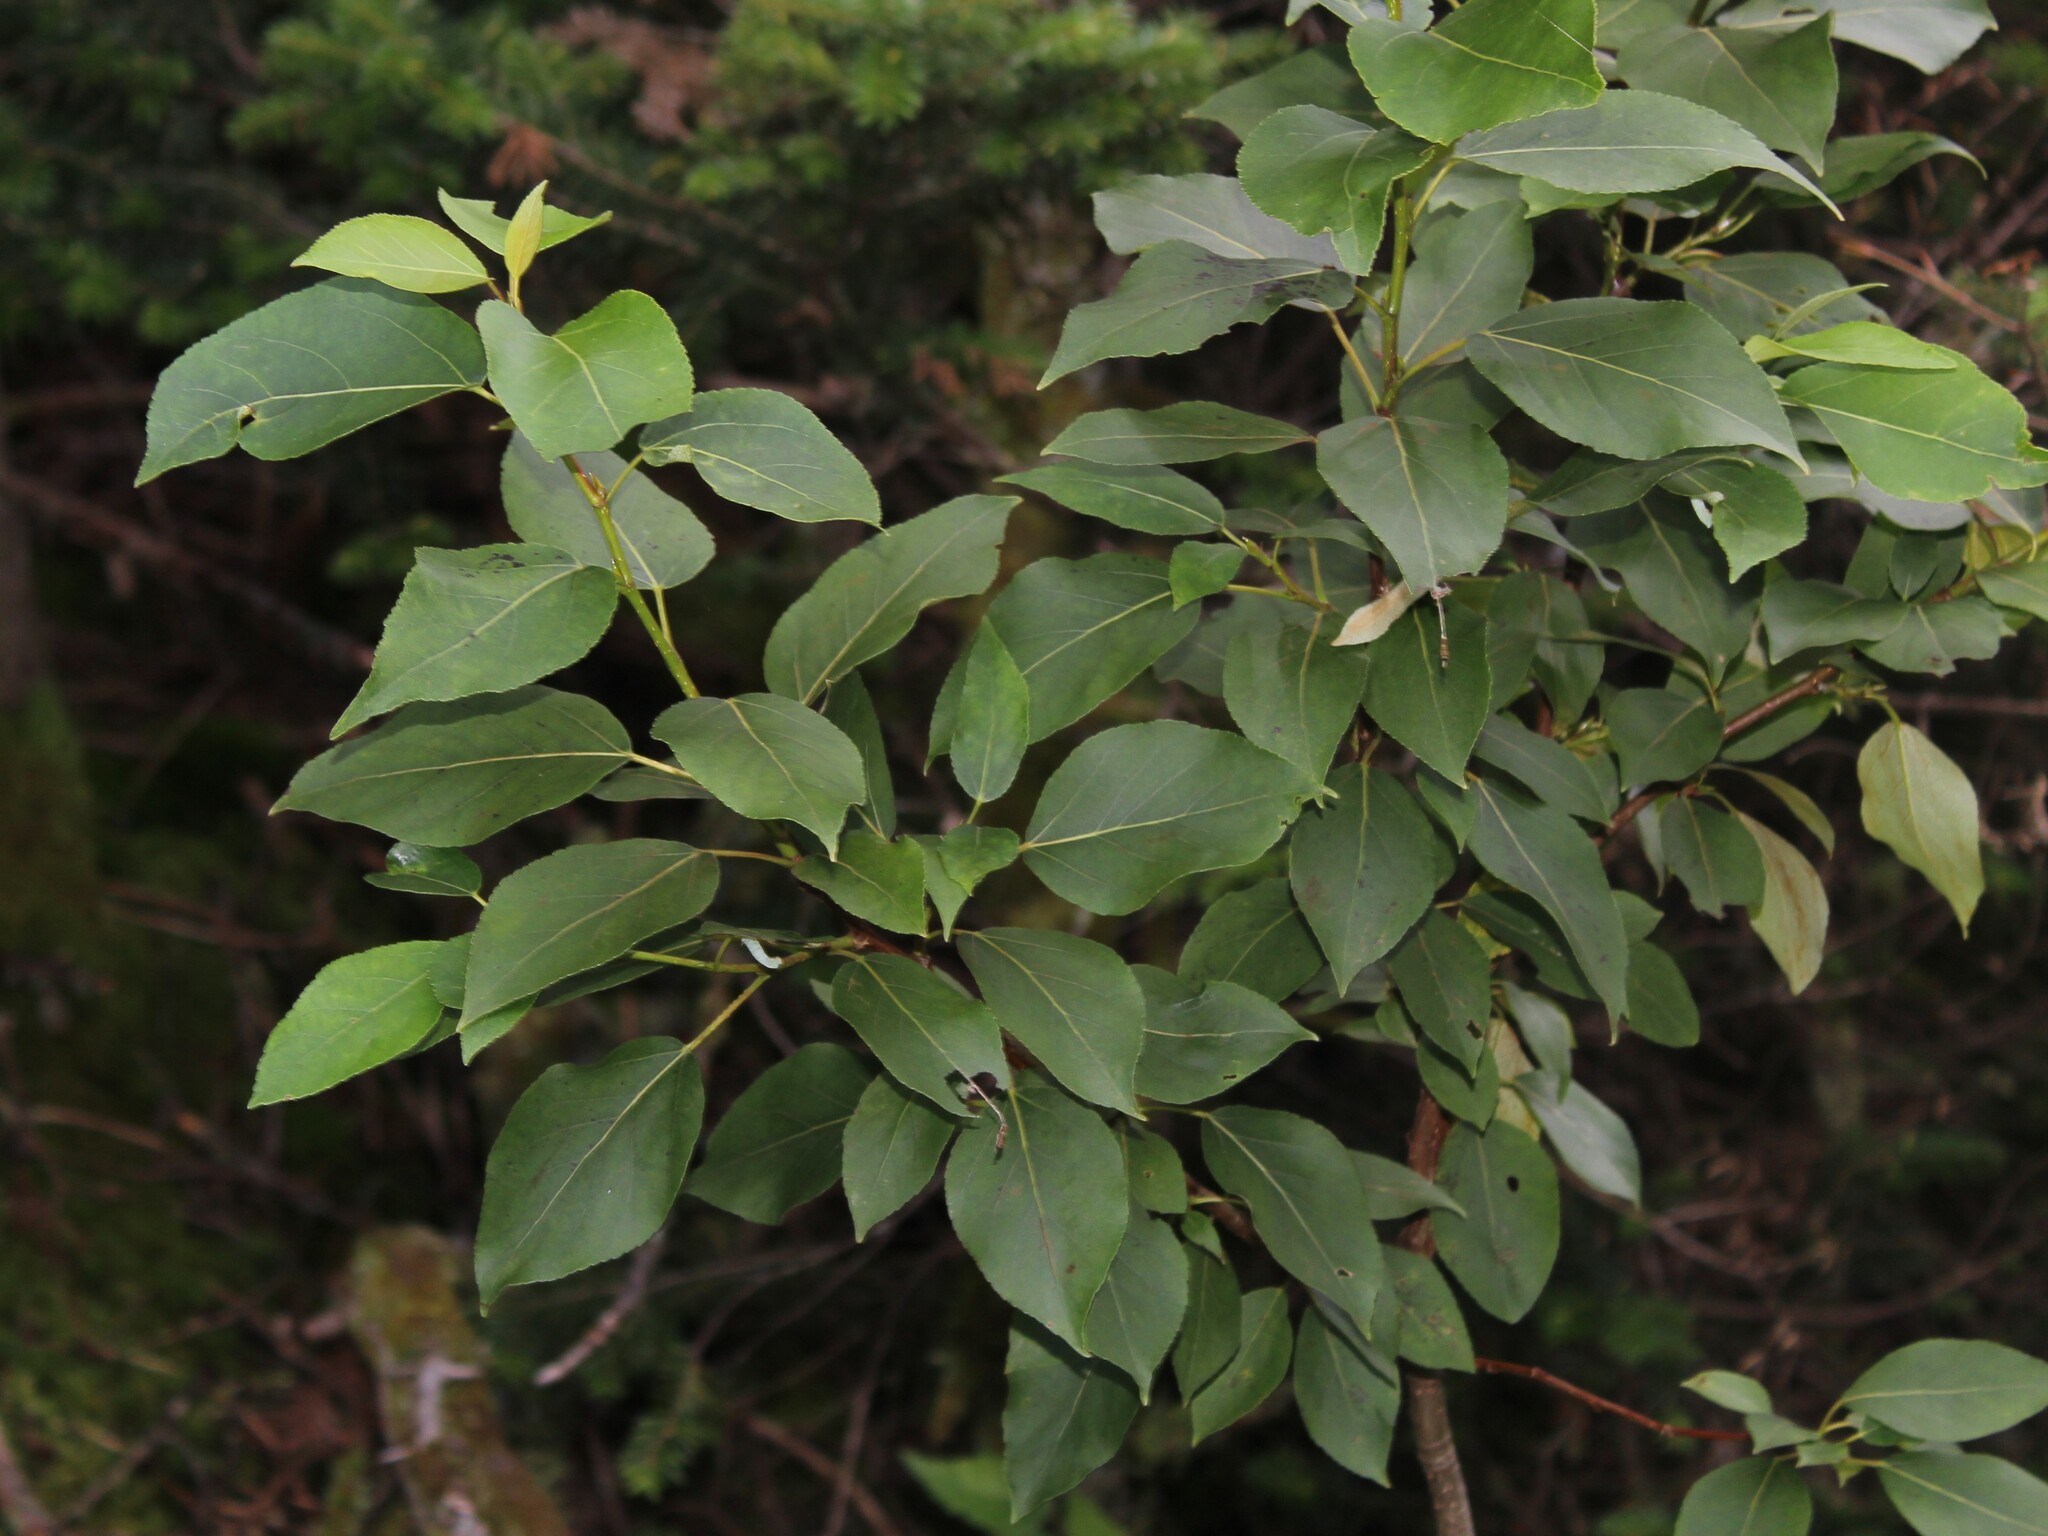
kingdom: Plantae
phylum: Tracheophyta
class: Magnoliopsida
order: Malpighiales
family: Salicaceae
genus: Populus
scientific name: Populus balsamifera
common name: Balsam poplar
